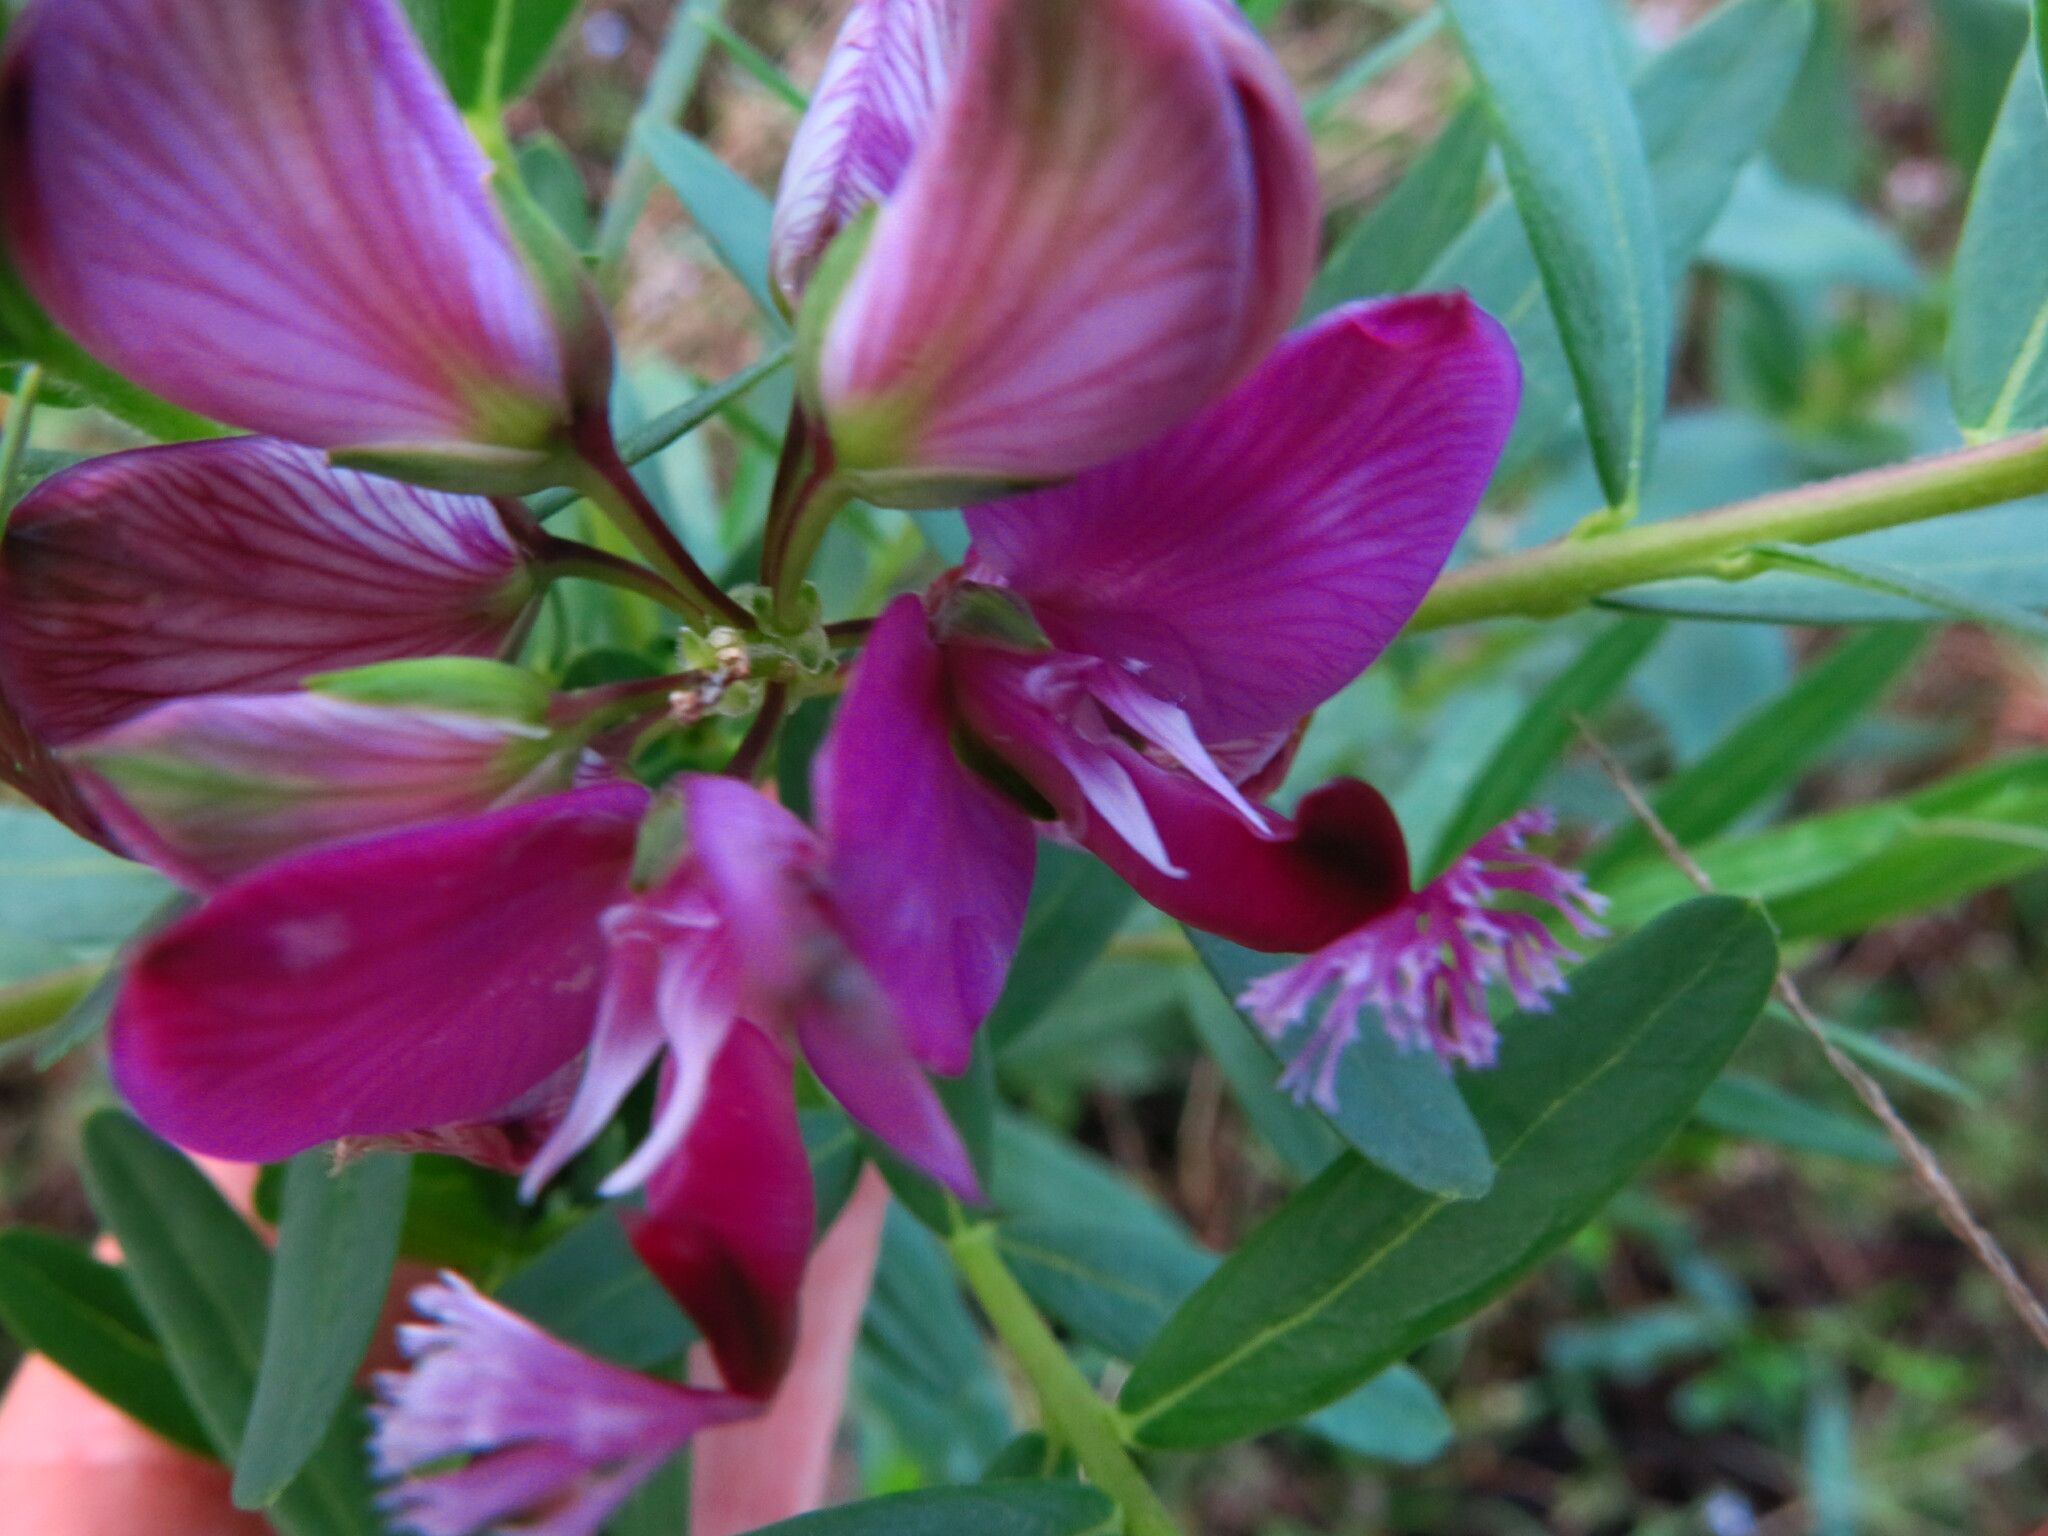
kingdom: Plantae
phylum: Tracheophyta
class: Magnoliopsida
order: Fabales
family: Polygalaceae
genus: Polygala
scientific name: Polygala myrtifolia
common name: Myrtle-leaf milkwort
